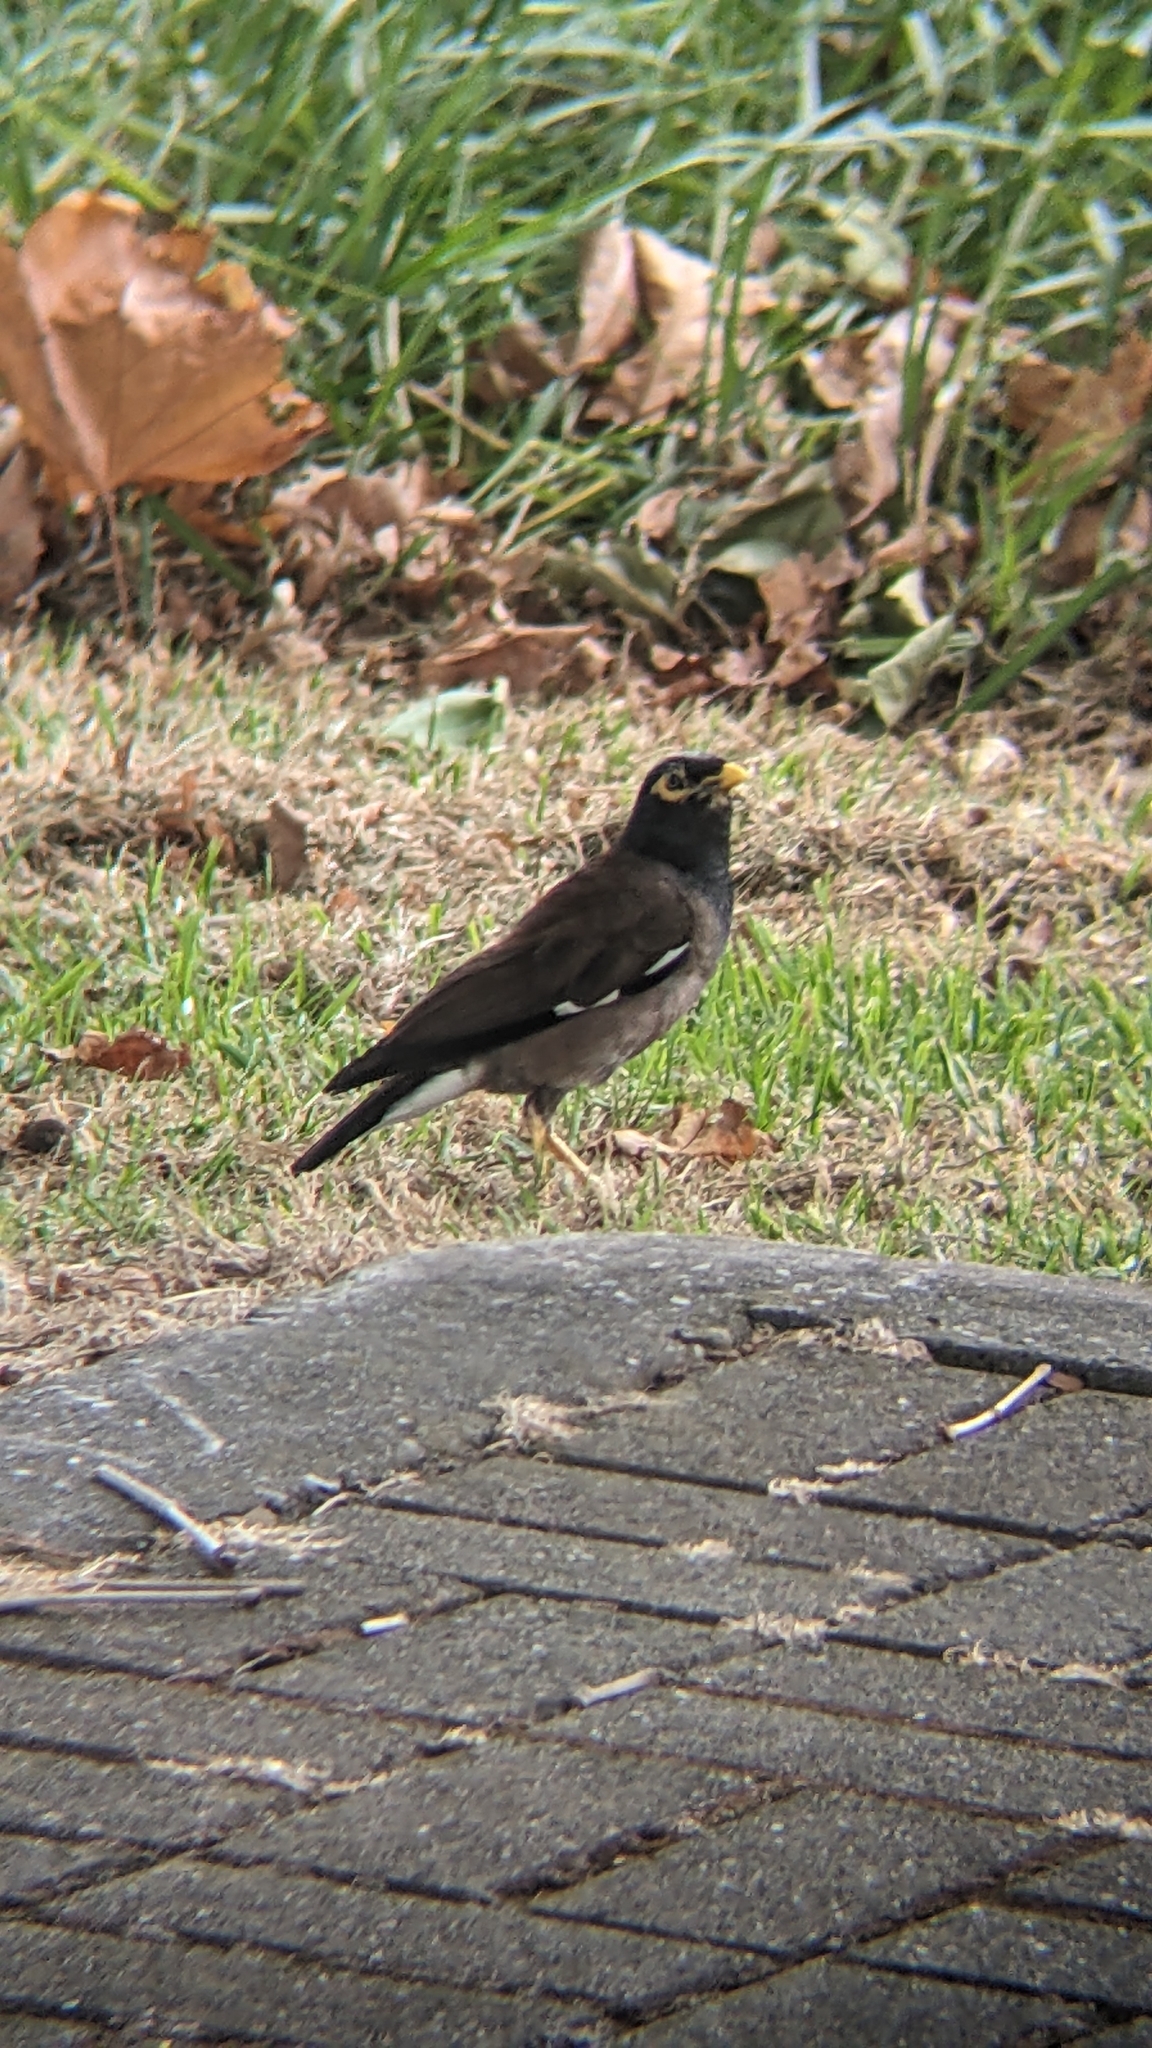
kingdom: Animalia
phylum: Chordata
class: Aves
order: Passeriformes
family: Sturnidae
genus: Acridotheres
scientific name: Acridotheres tristis
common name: Common myna
